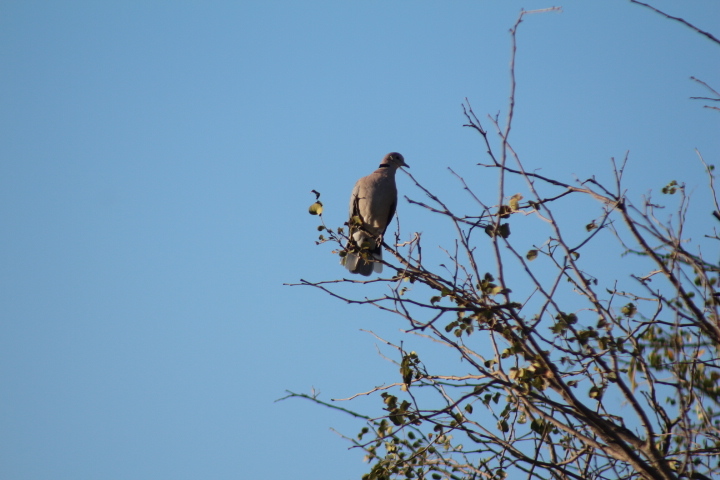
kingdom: Animalia
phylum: Chordata
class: Aves
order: Columbiformes
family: Columbidae
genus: Streptopelia
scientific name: Streptopelia capicola
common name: Ring-necked dove
